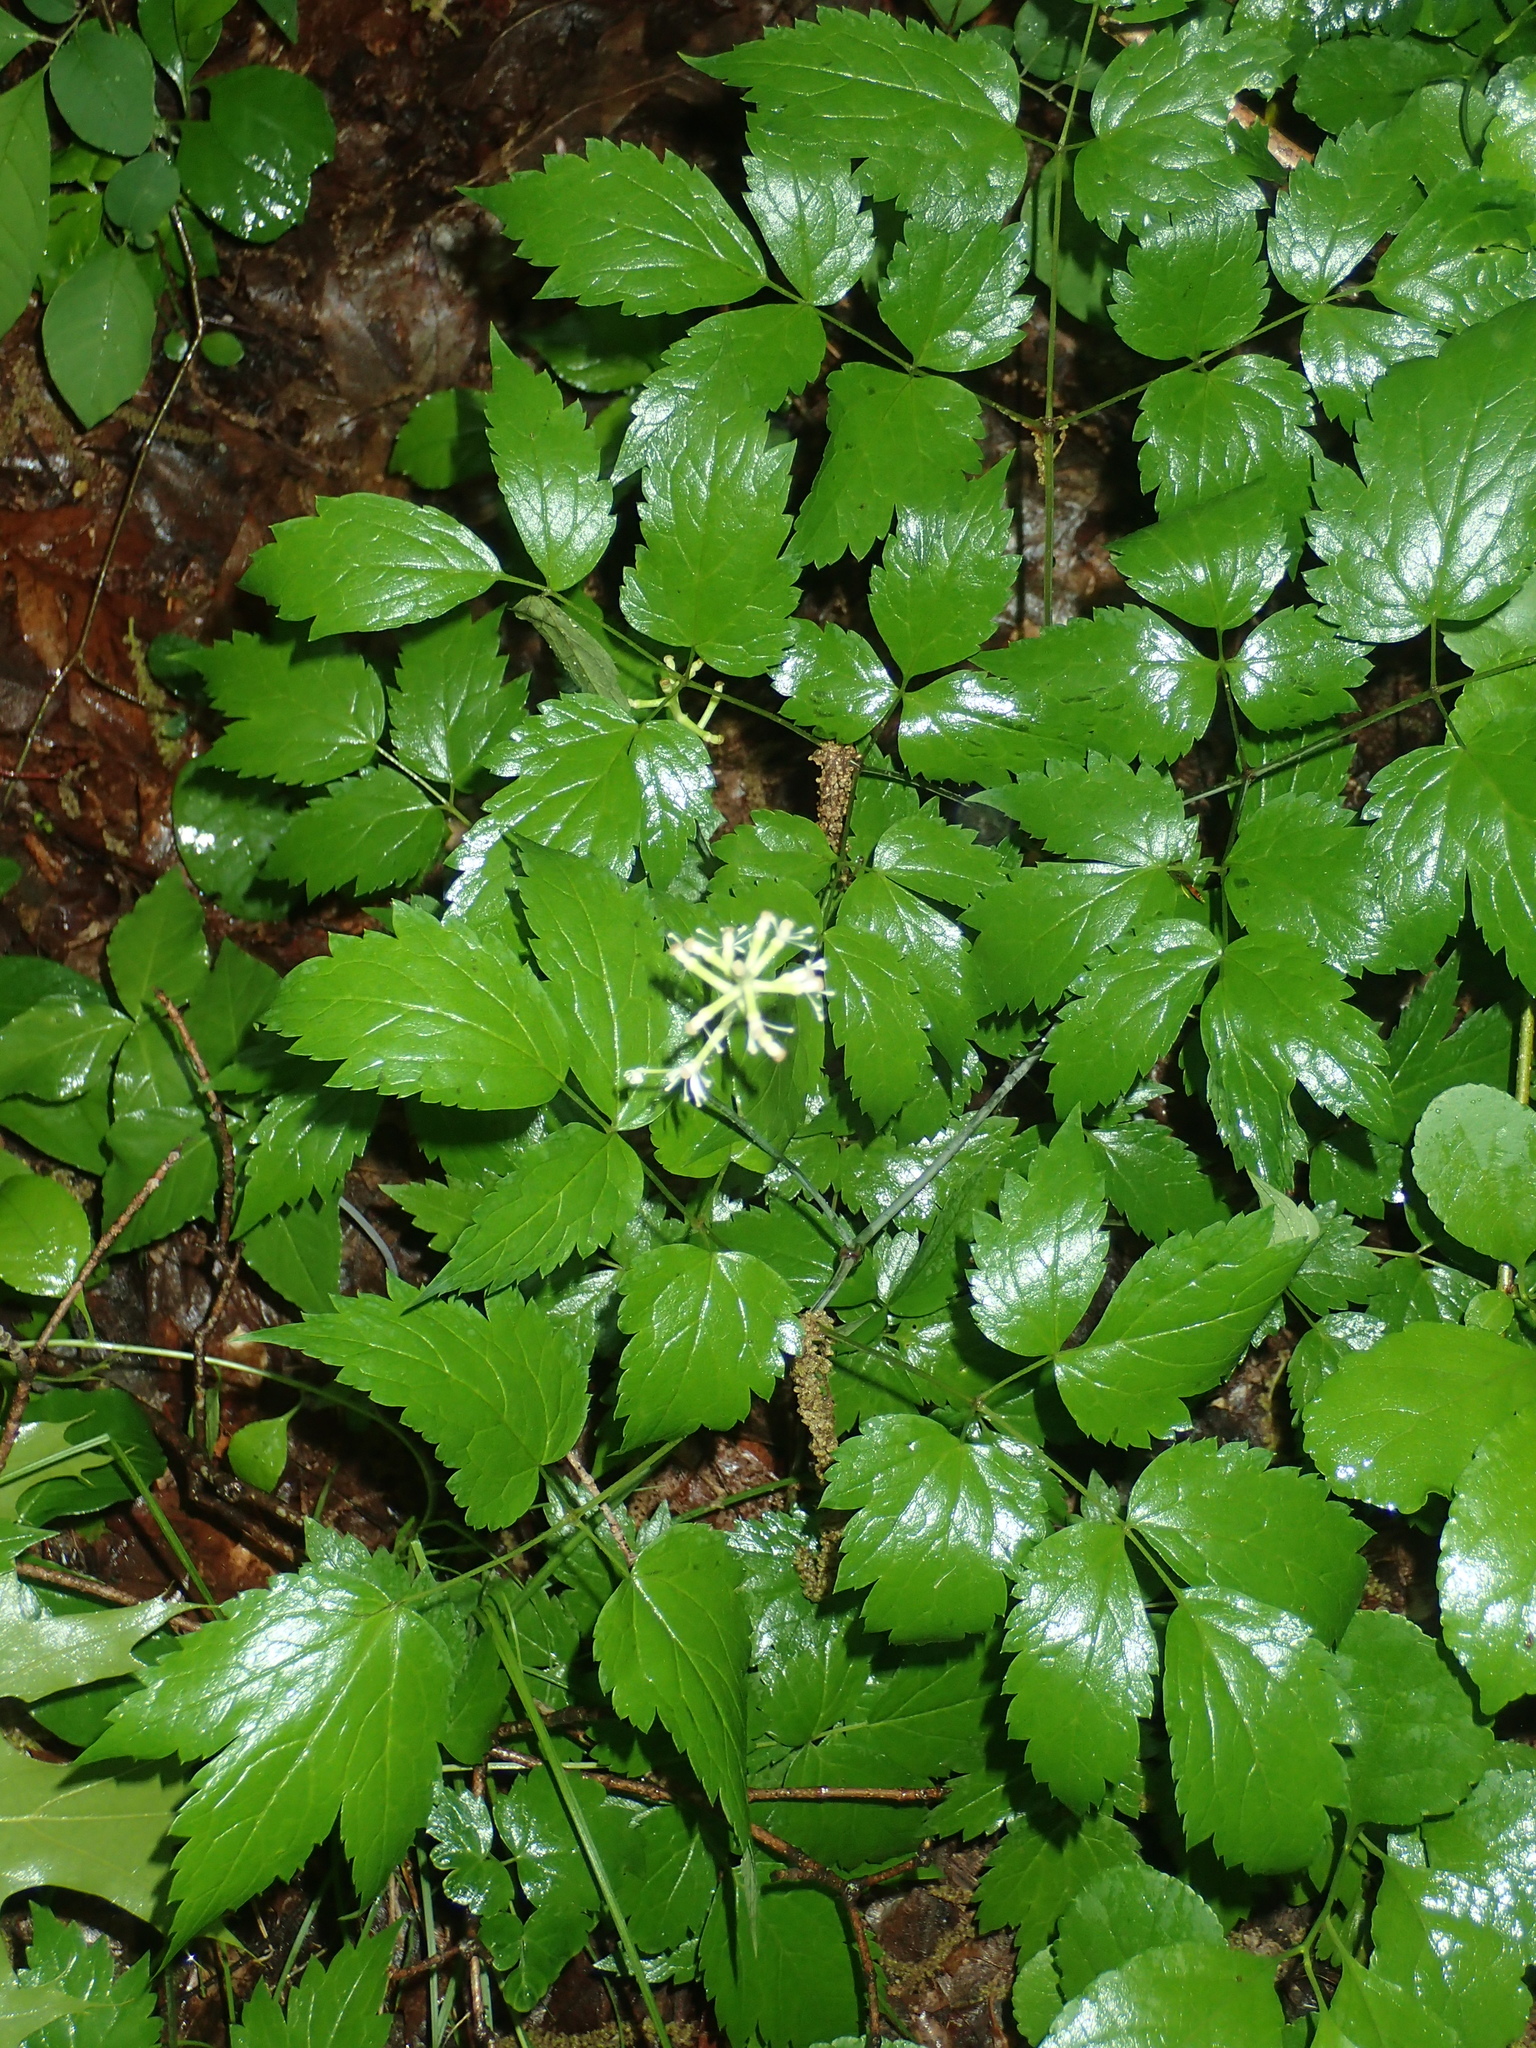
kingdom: Plantae
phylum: Tracheophyta
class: Magnoliopsida
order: Ranunculales
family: Ranunculaceae
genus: Actaea
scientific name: Actaea pachypoda
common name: Doll's-eyes
